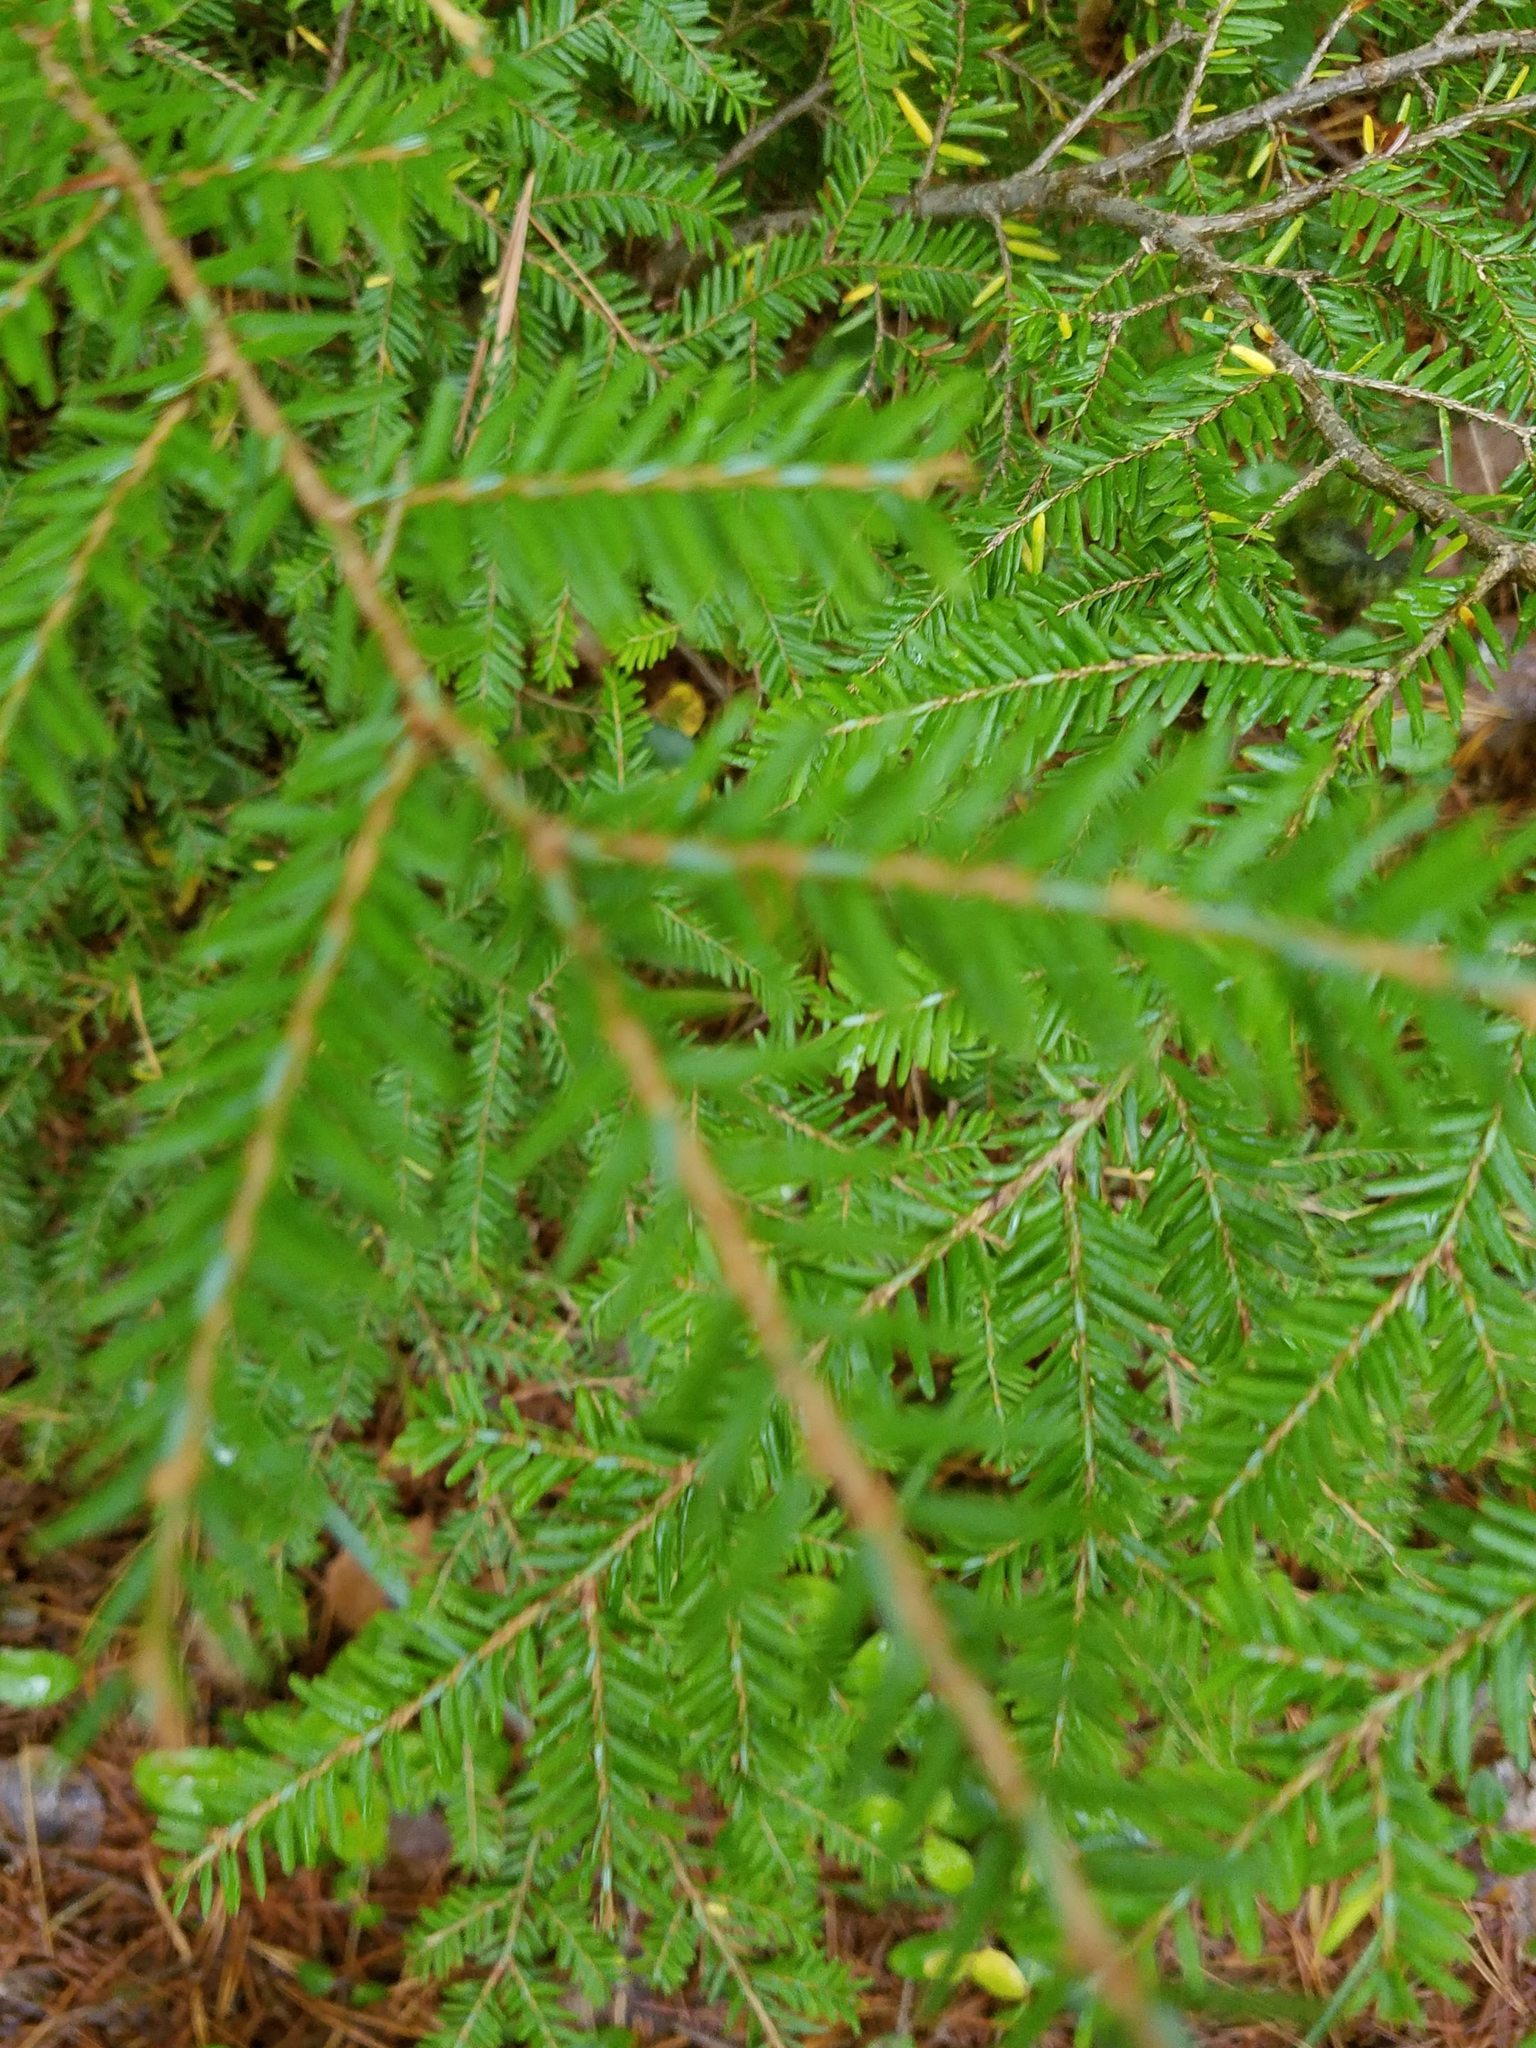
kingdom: Plantae
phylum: Tracheophyta
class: Pinopsida
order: Pinales
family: Pinaceae
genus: Tsuga
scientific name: Tsuga canadensis
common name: Eastern hemlock
